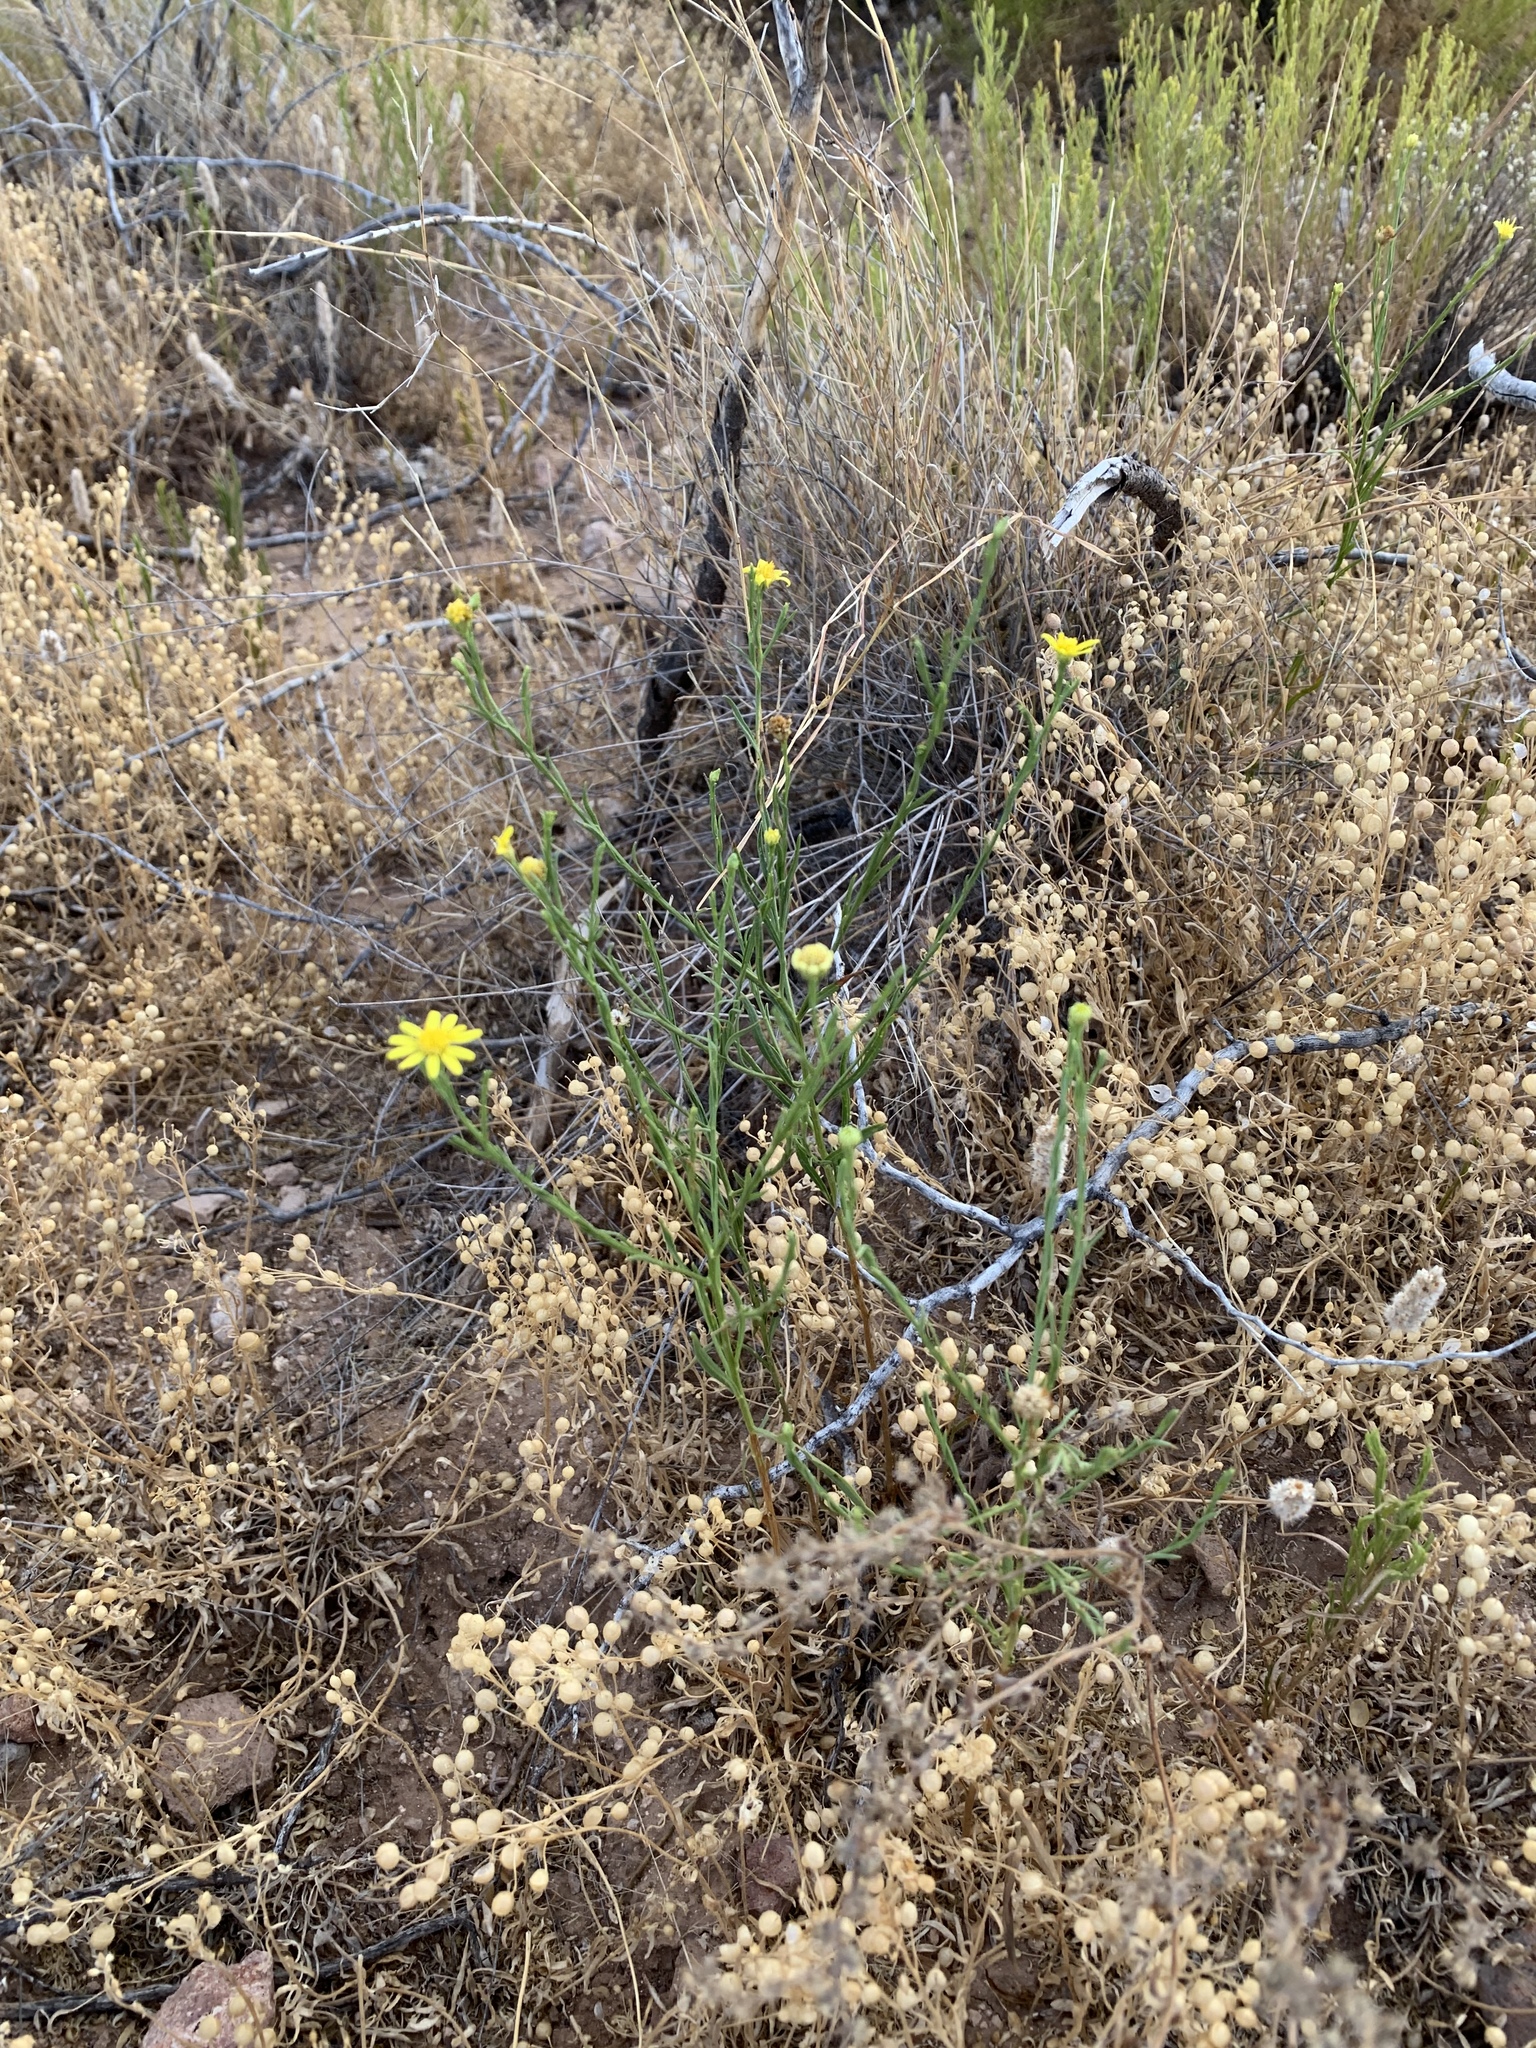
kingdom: Plantae
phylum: Tracheophyta
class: Magnoliopsida
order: Asterales
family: Asteraceae
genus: Gutierrezia
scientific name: Gutierrezia sphaerocephala
